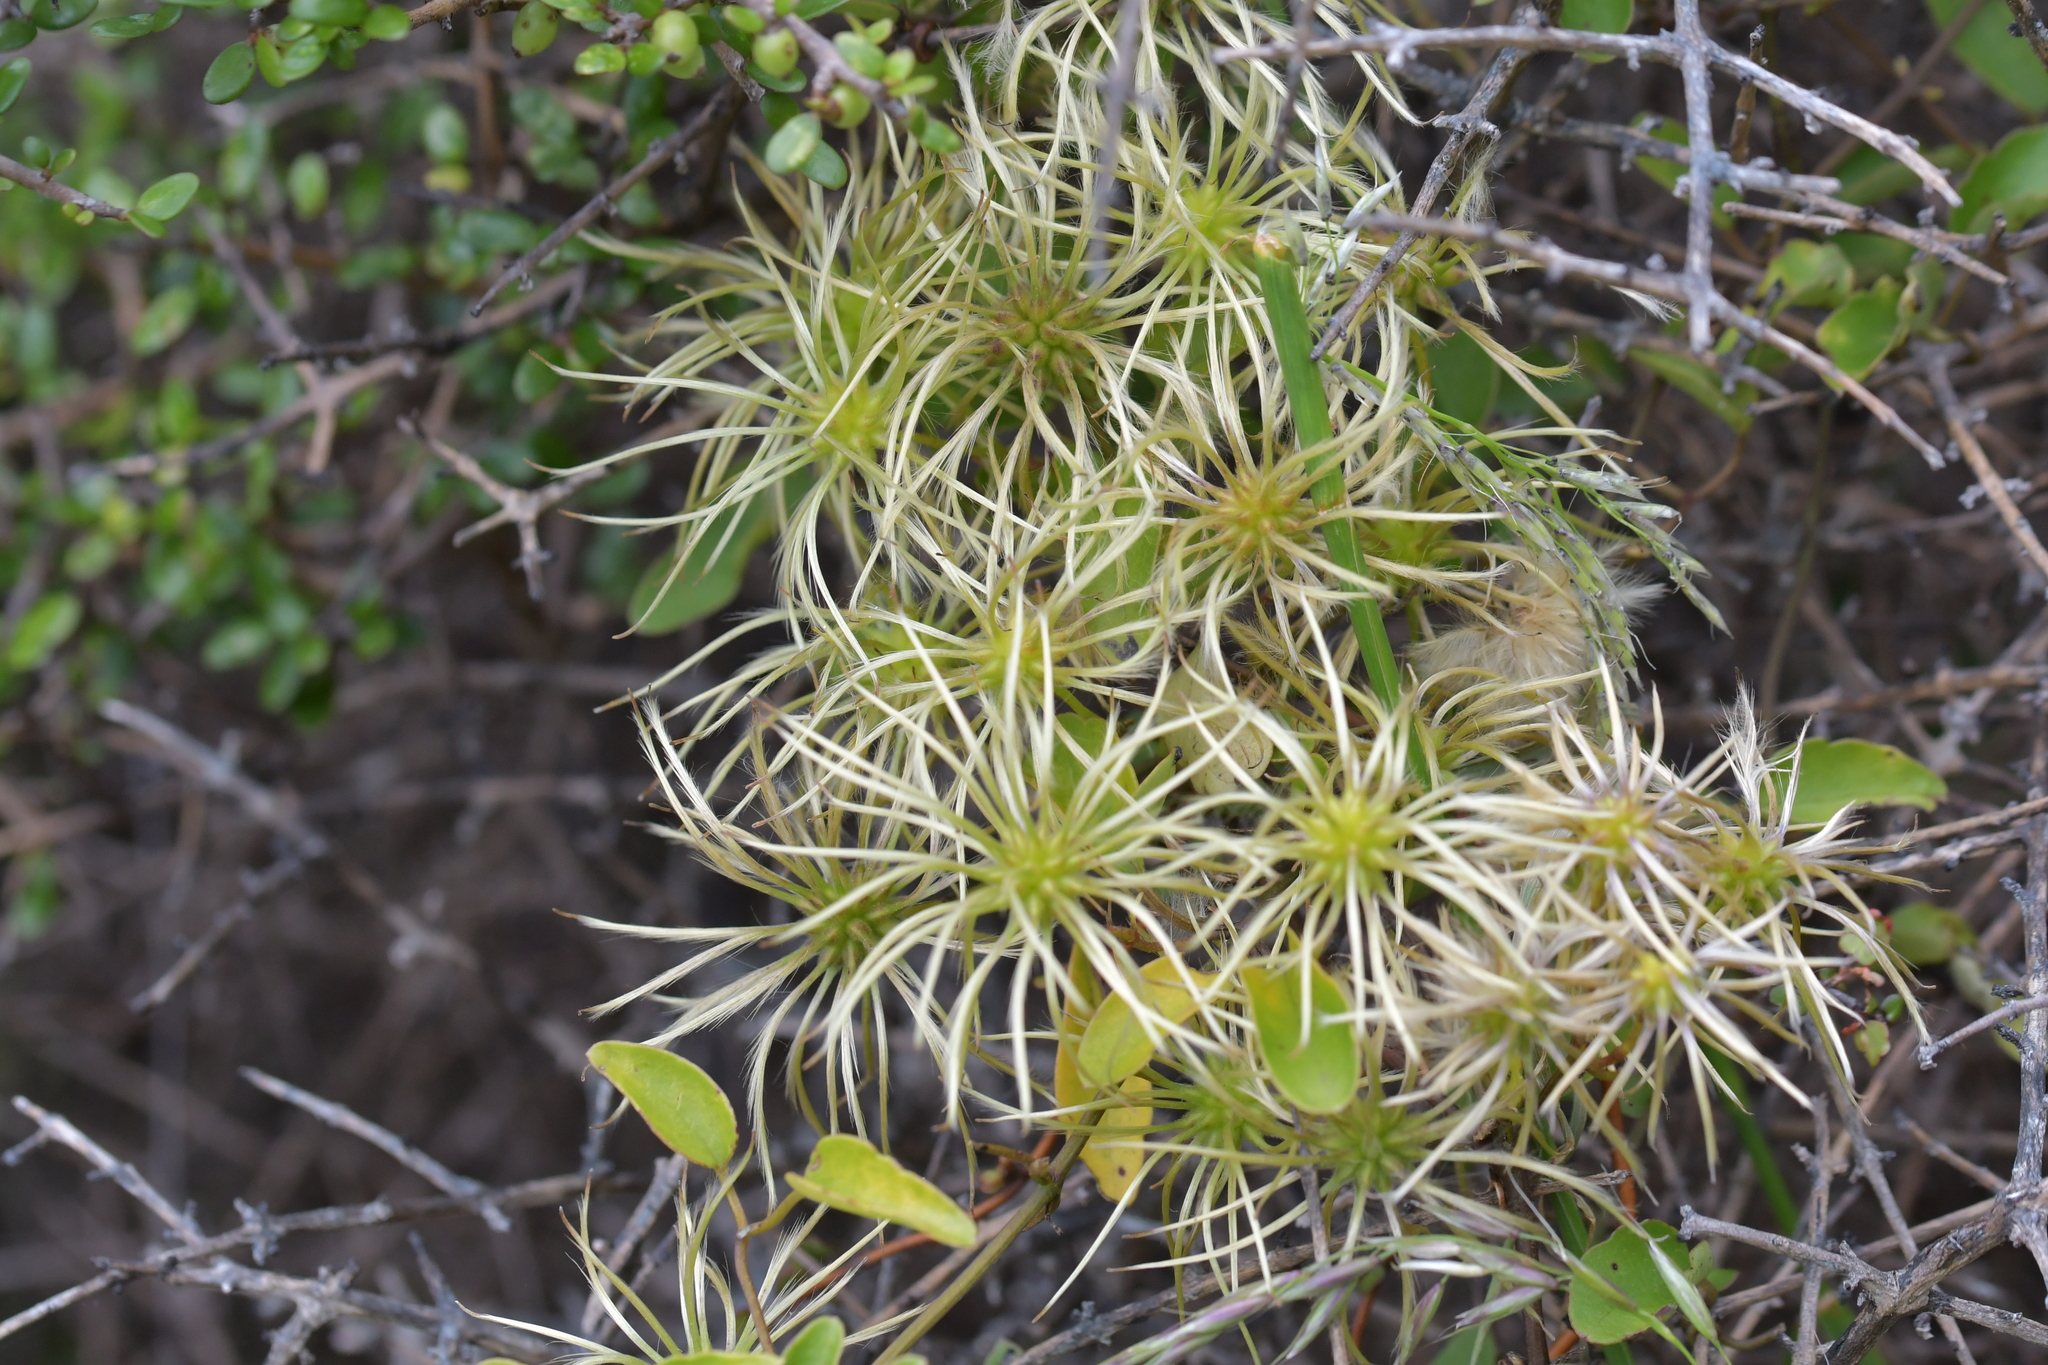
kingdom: Plantae
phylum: Tracheophyta
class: Magnoliopsida
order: Ranunculales
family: Ranunculaceae
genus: Clematis
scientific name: Clematis forsteri
